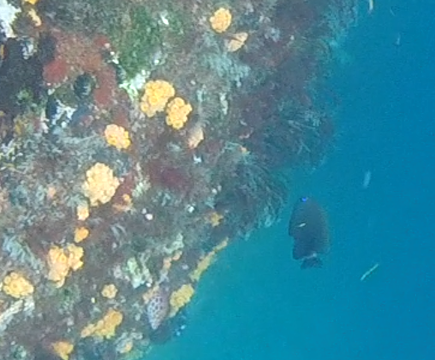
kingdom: Animalia
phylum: Chordata
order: Perciformes
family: Pomacentridae
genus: Stegastes
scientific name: Stegastes beebei
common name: Galapagos ringtail damselfish
